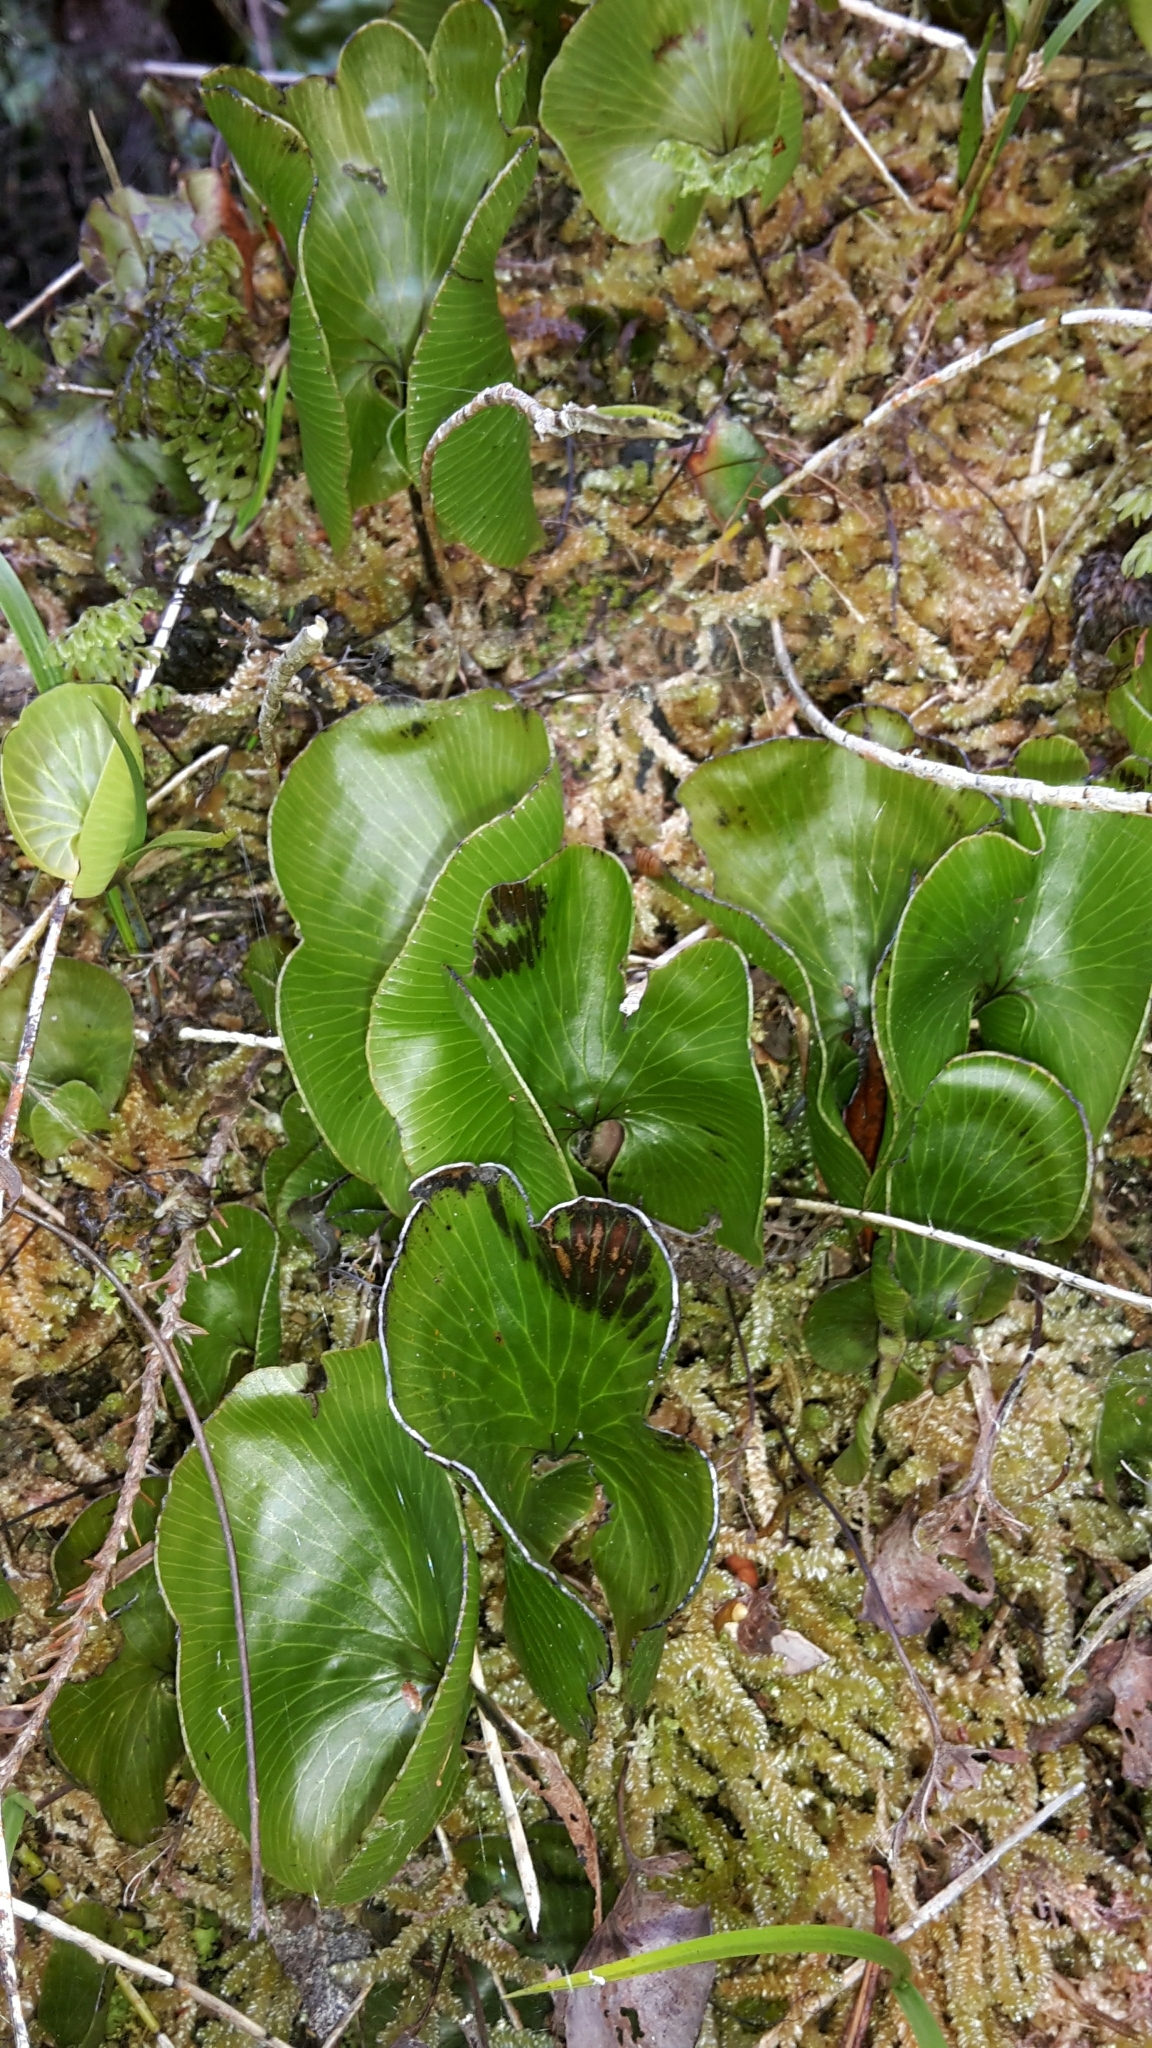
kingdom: Plantae
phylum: Tracheophyta
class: Polypodiopsida
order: Hymenophyllales
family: Hymenophyllaceae
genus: Hymenophyllum
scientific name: Hymenophyllum nephrophyllum
